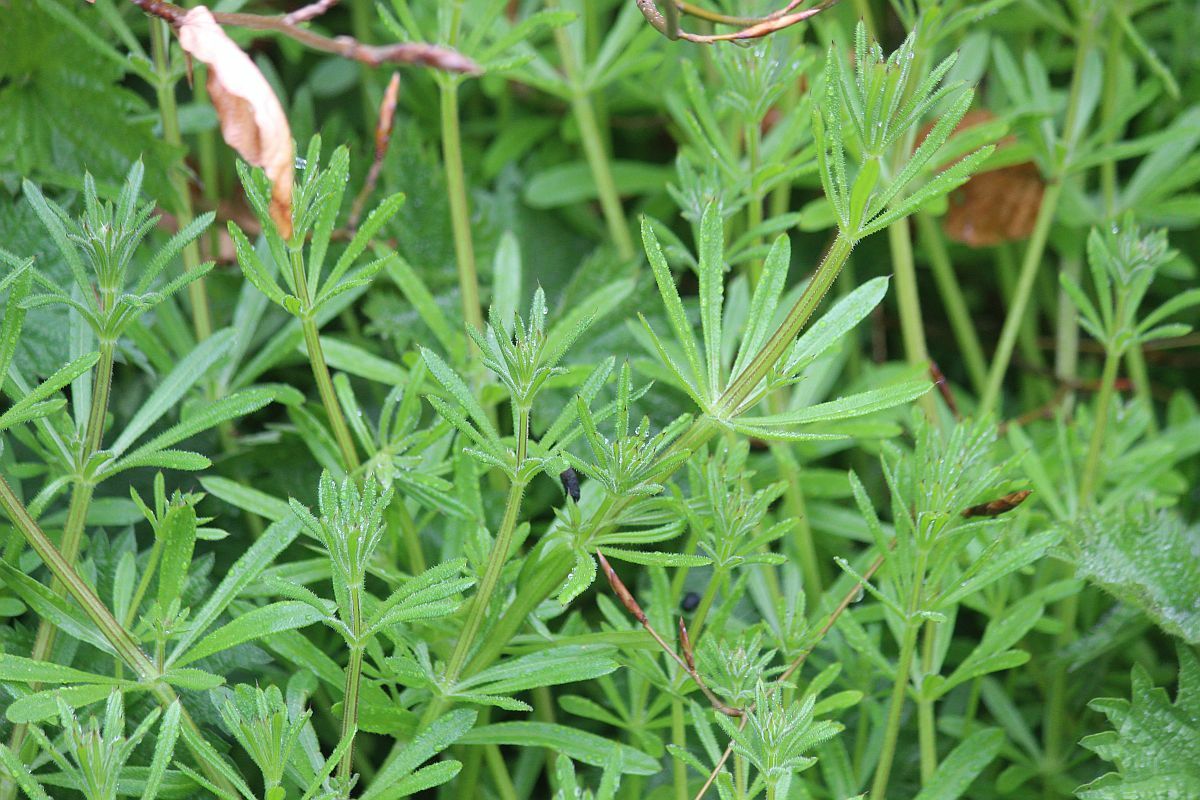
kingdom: Plantae
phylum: Tracheophyta
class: Magnoliopsida
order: Gentianales
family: Rubiaceae
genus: Galium
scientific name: Galium aparine
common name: Cleavers
